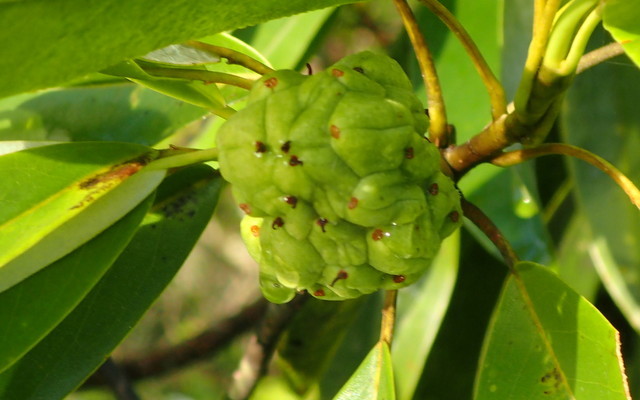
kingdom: Plantae
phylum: Tracheophyta
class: Magnoliopsida
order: Magnoliales
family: Magnoliaceae
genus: Magnolia
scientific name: Magnolia virginiana
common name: Swamp bay
